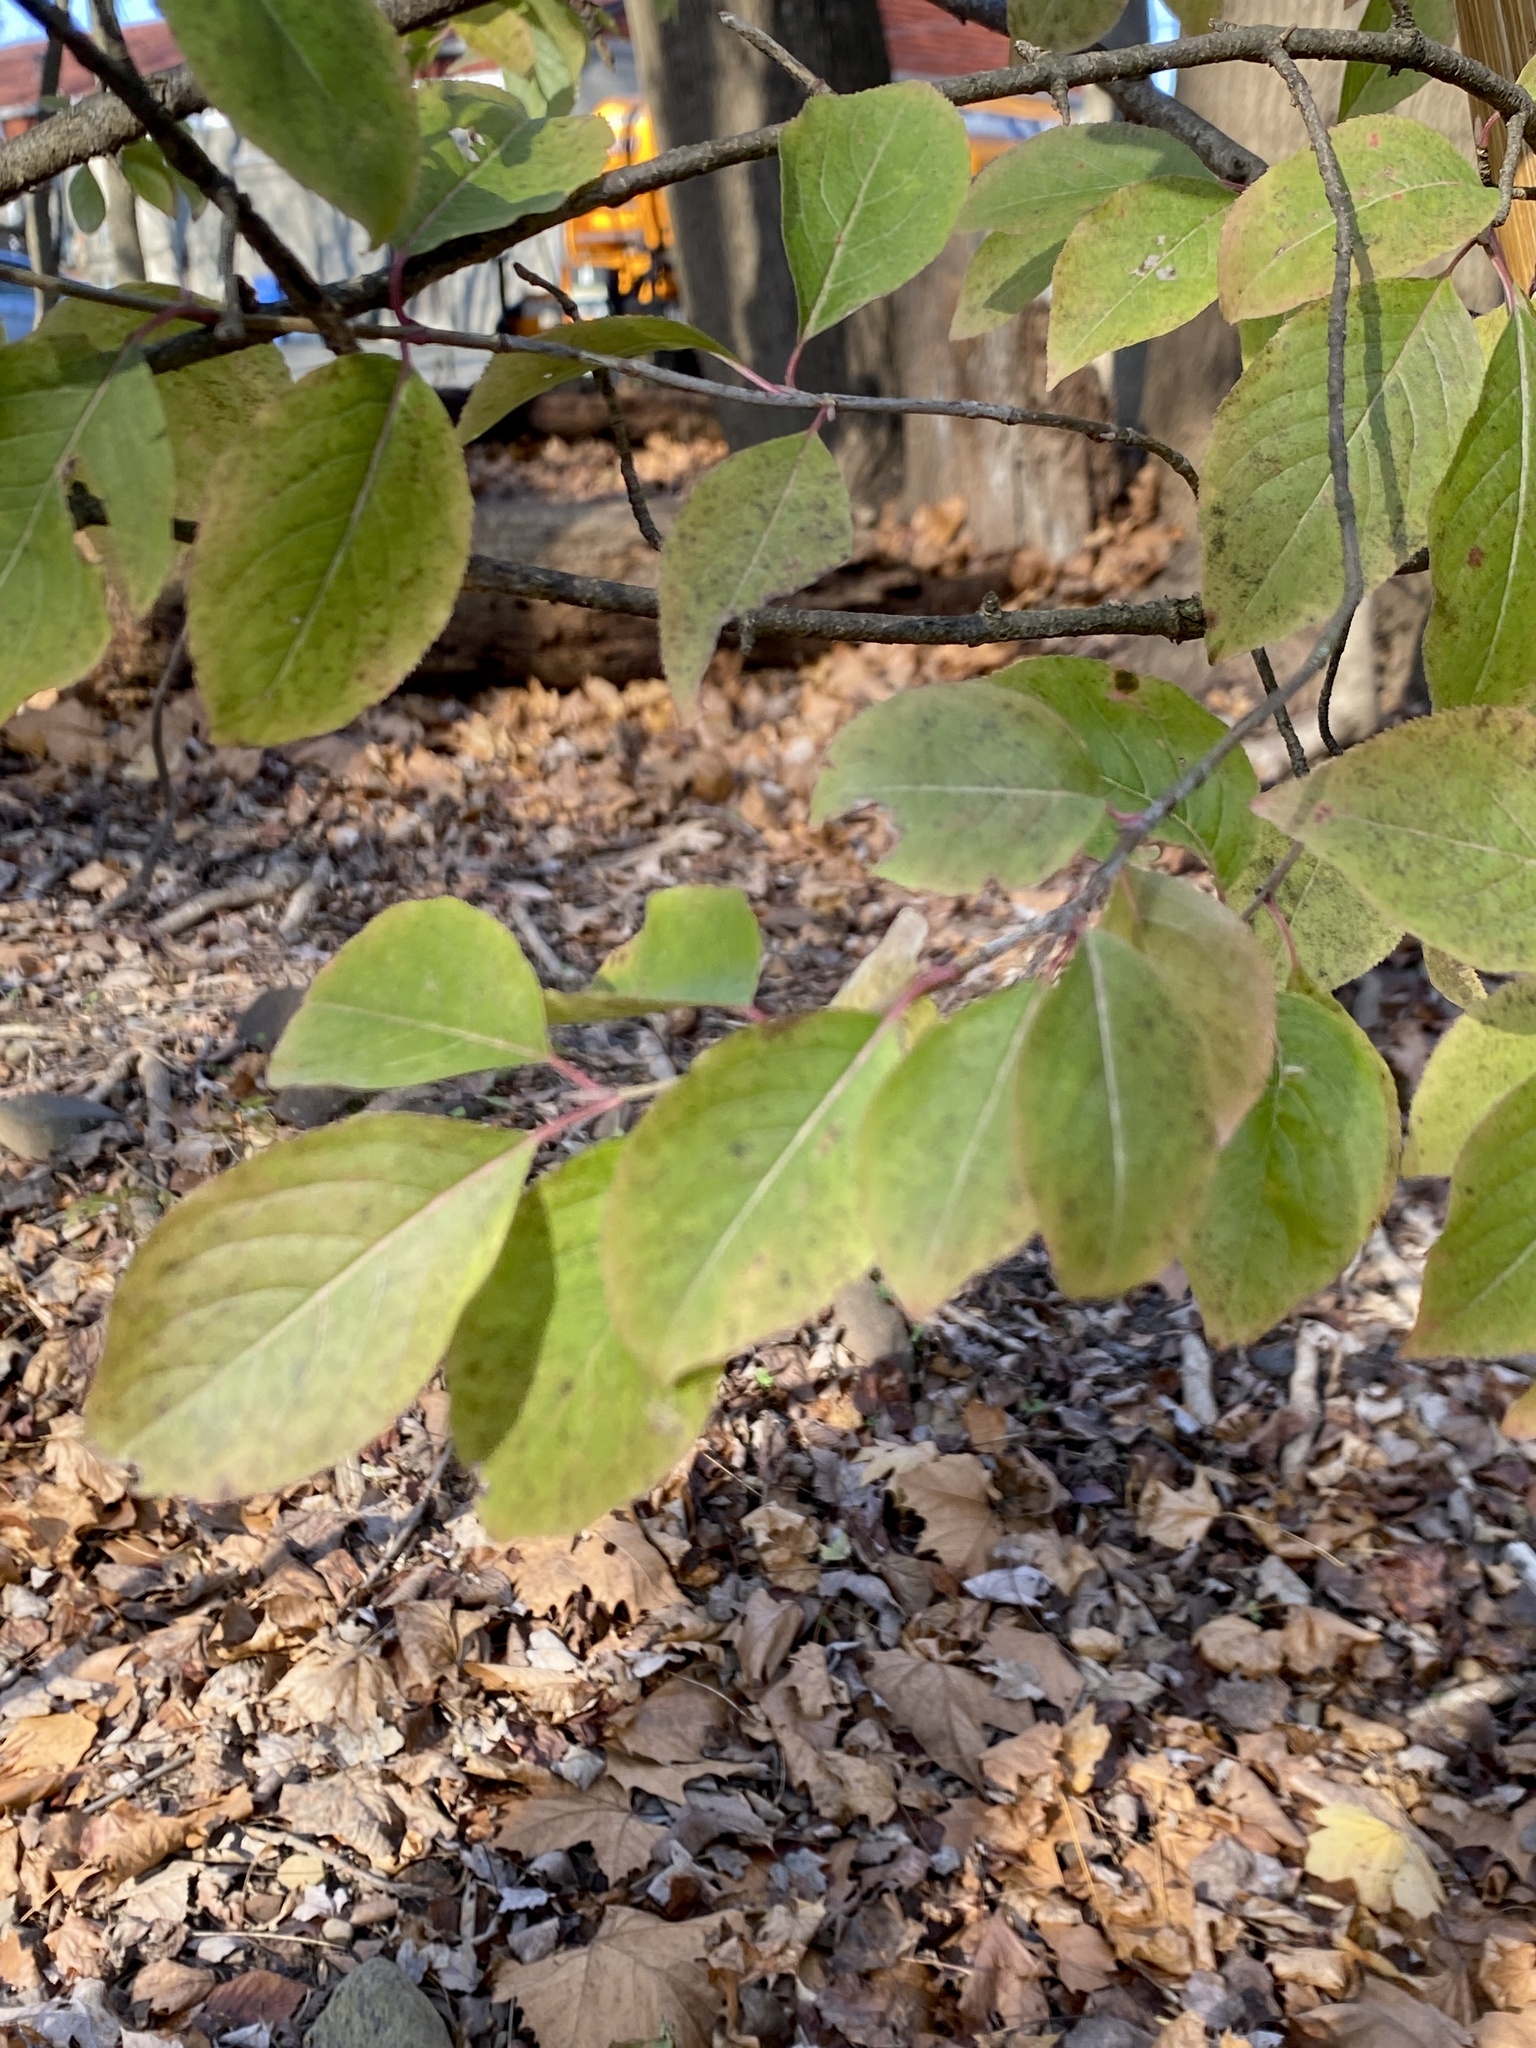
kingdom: Plantae
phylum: Tracheophyta
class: Magnoliopsida
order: Dipsacales
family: Viburnaceae
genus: Viburnum
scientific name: Viburnum prunifolium
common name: Black haw
